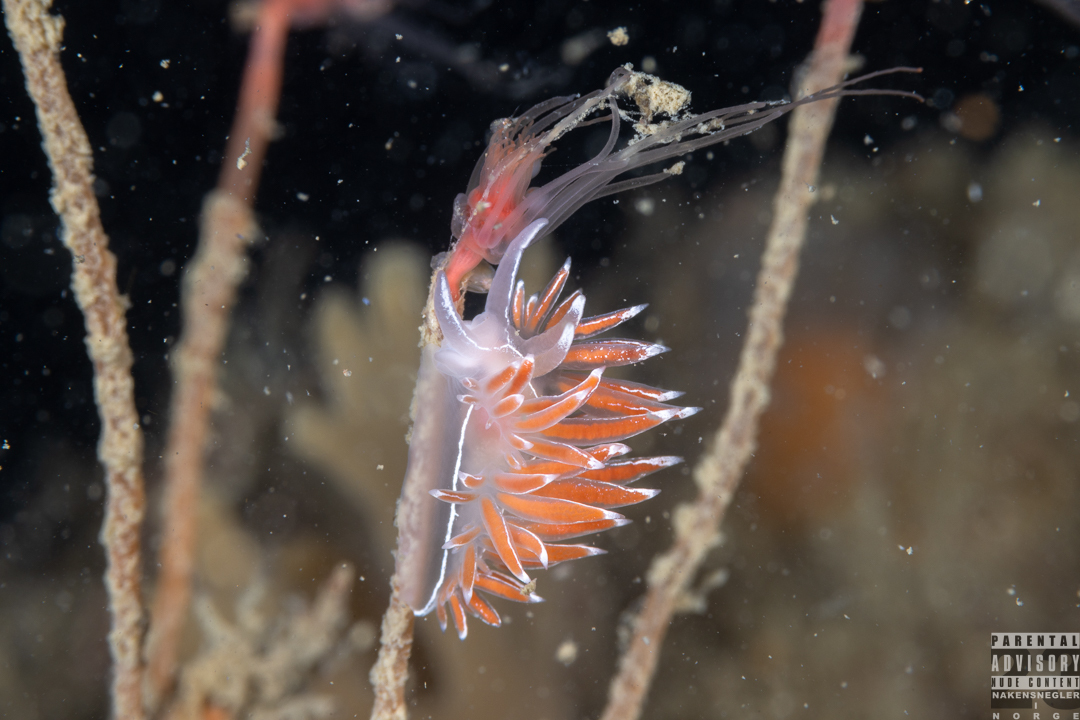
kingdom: Animalia
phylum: Mollusca
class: Gastropoda
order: Nudibranchia
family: Coryphellidae
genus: Coryphella
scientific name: Coryphella lineata
